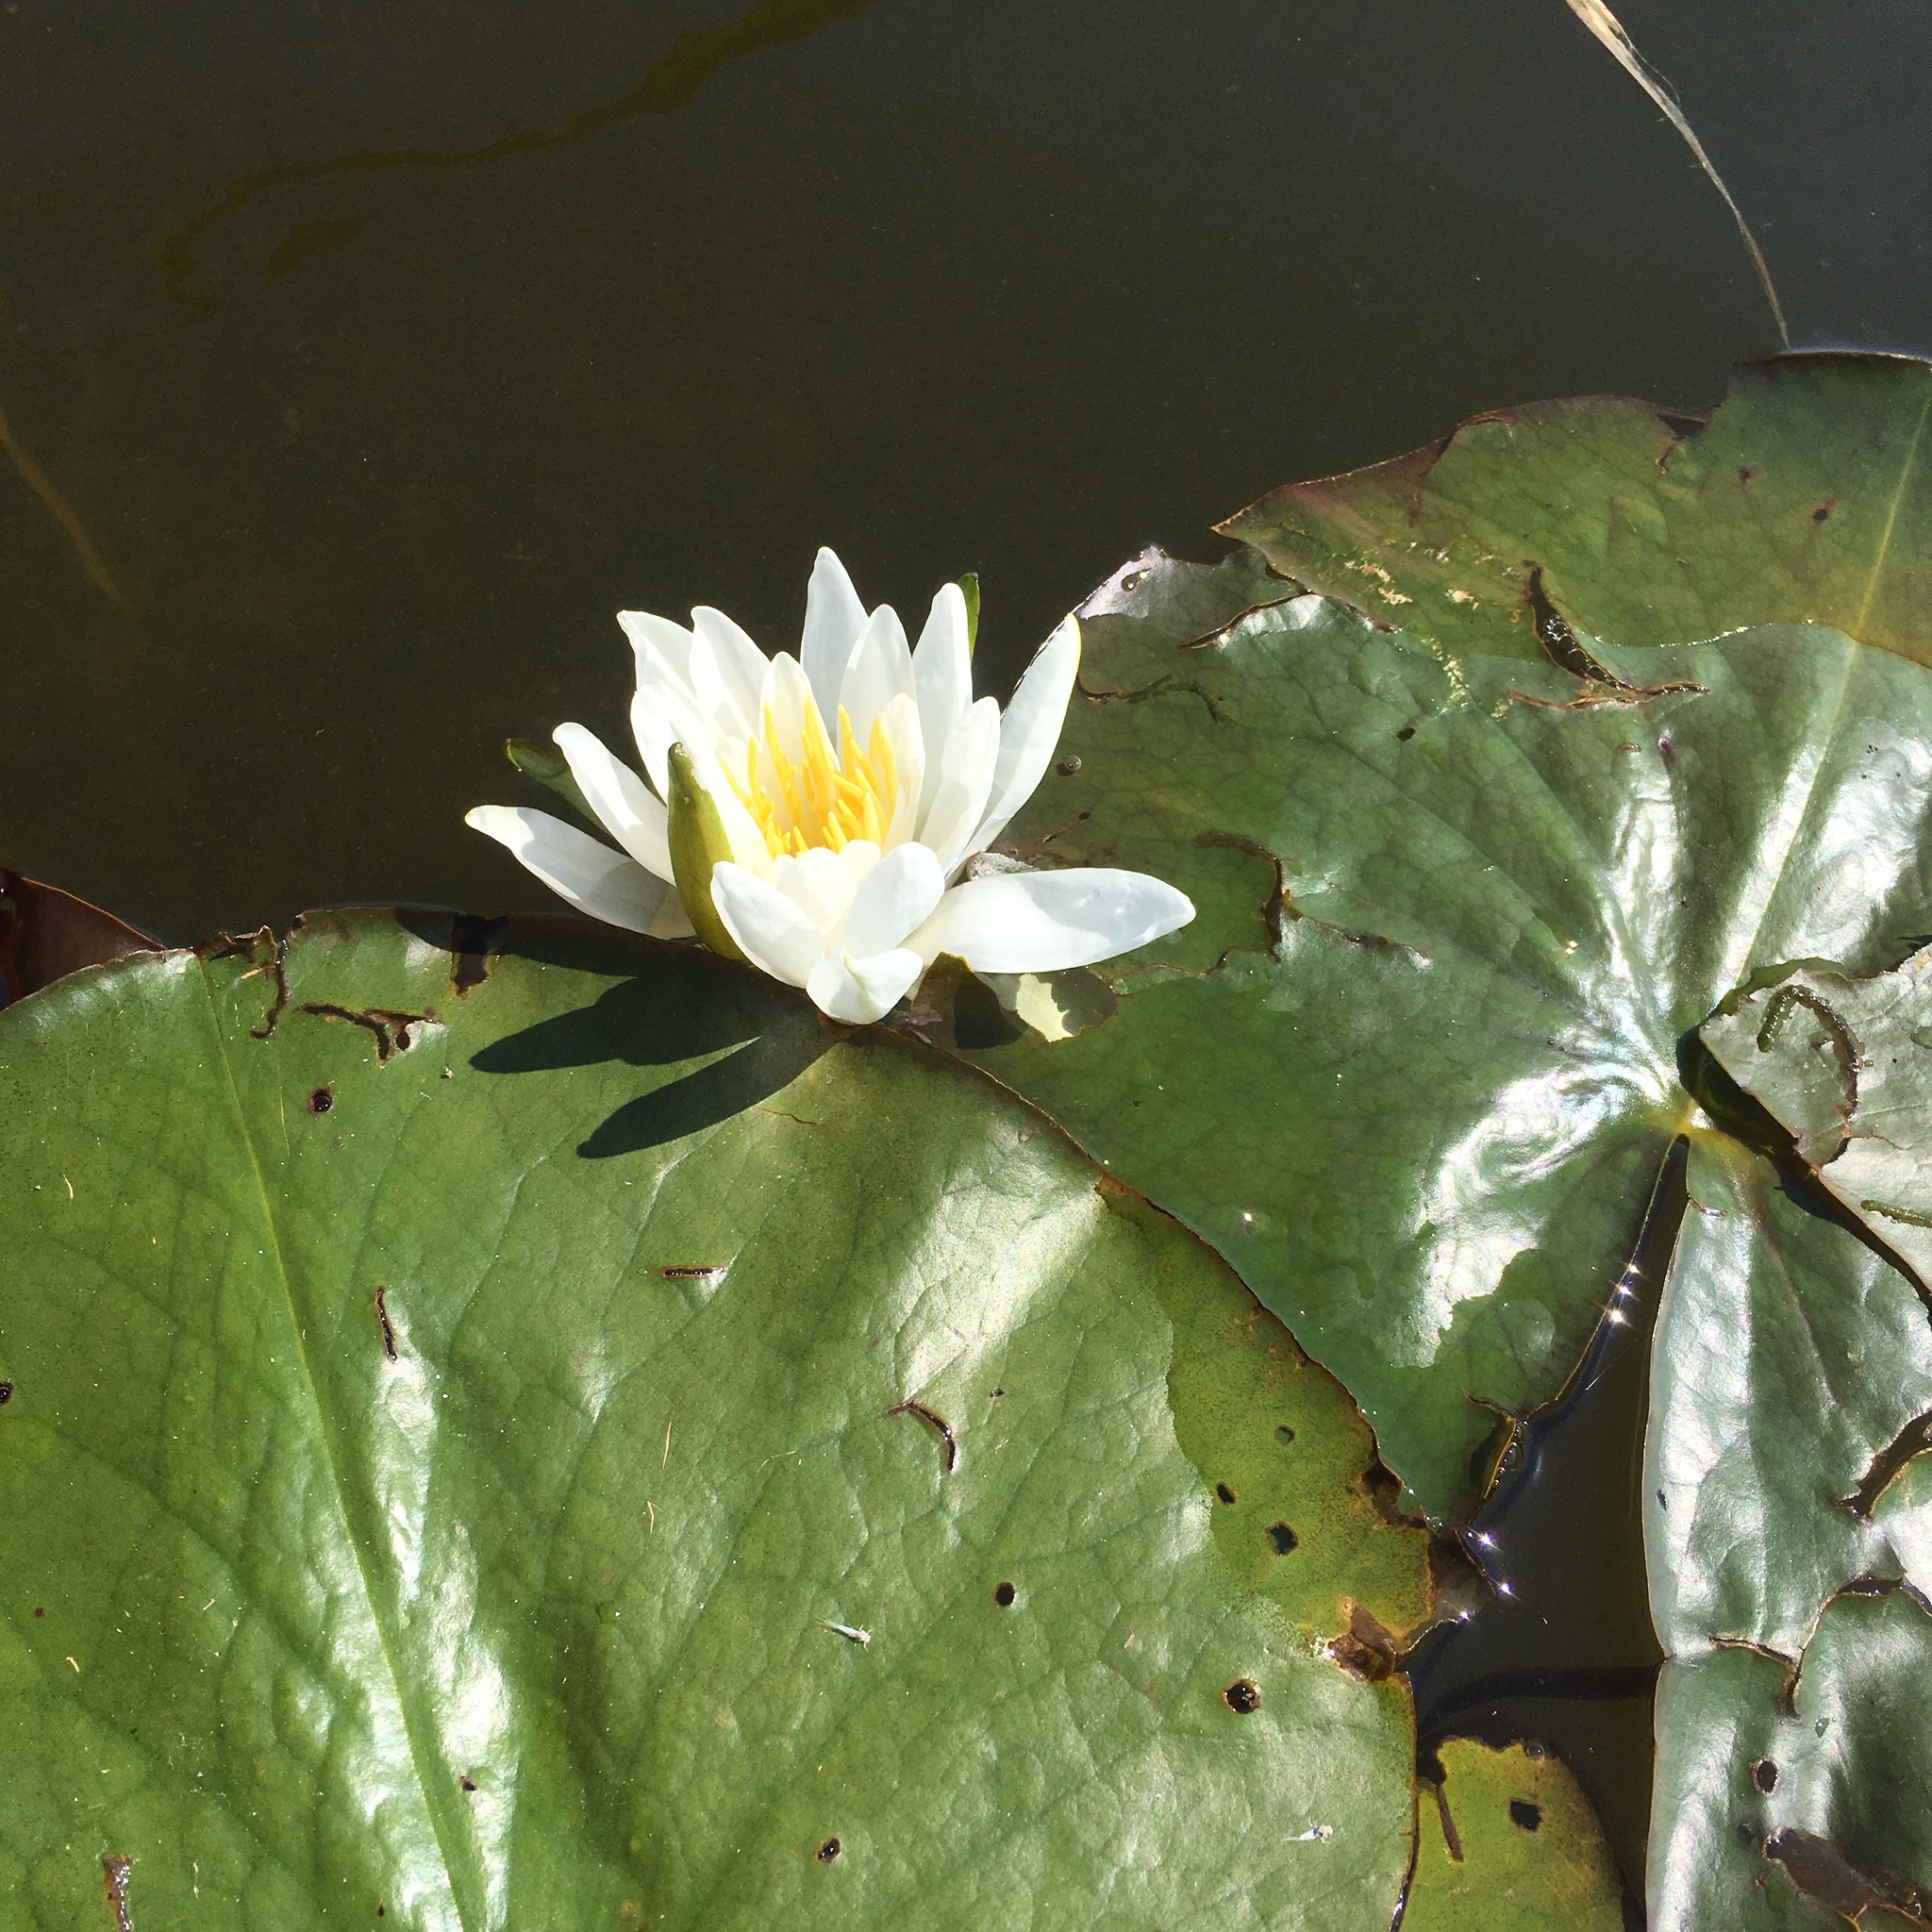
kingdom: Plantae
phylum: Tracheophyta
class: Magnoliopsida
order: Nymphaeales
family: Nymphaeaceae
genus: Nymphaea
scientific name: Nymphaea odorata
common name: Fragrant water-lily
